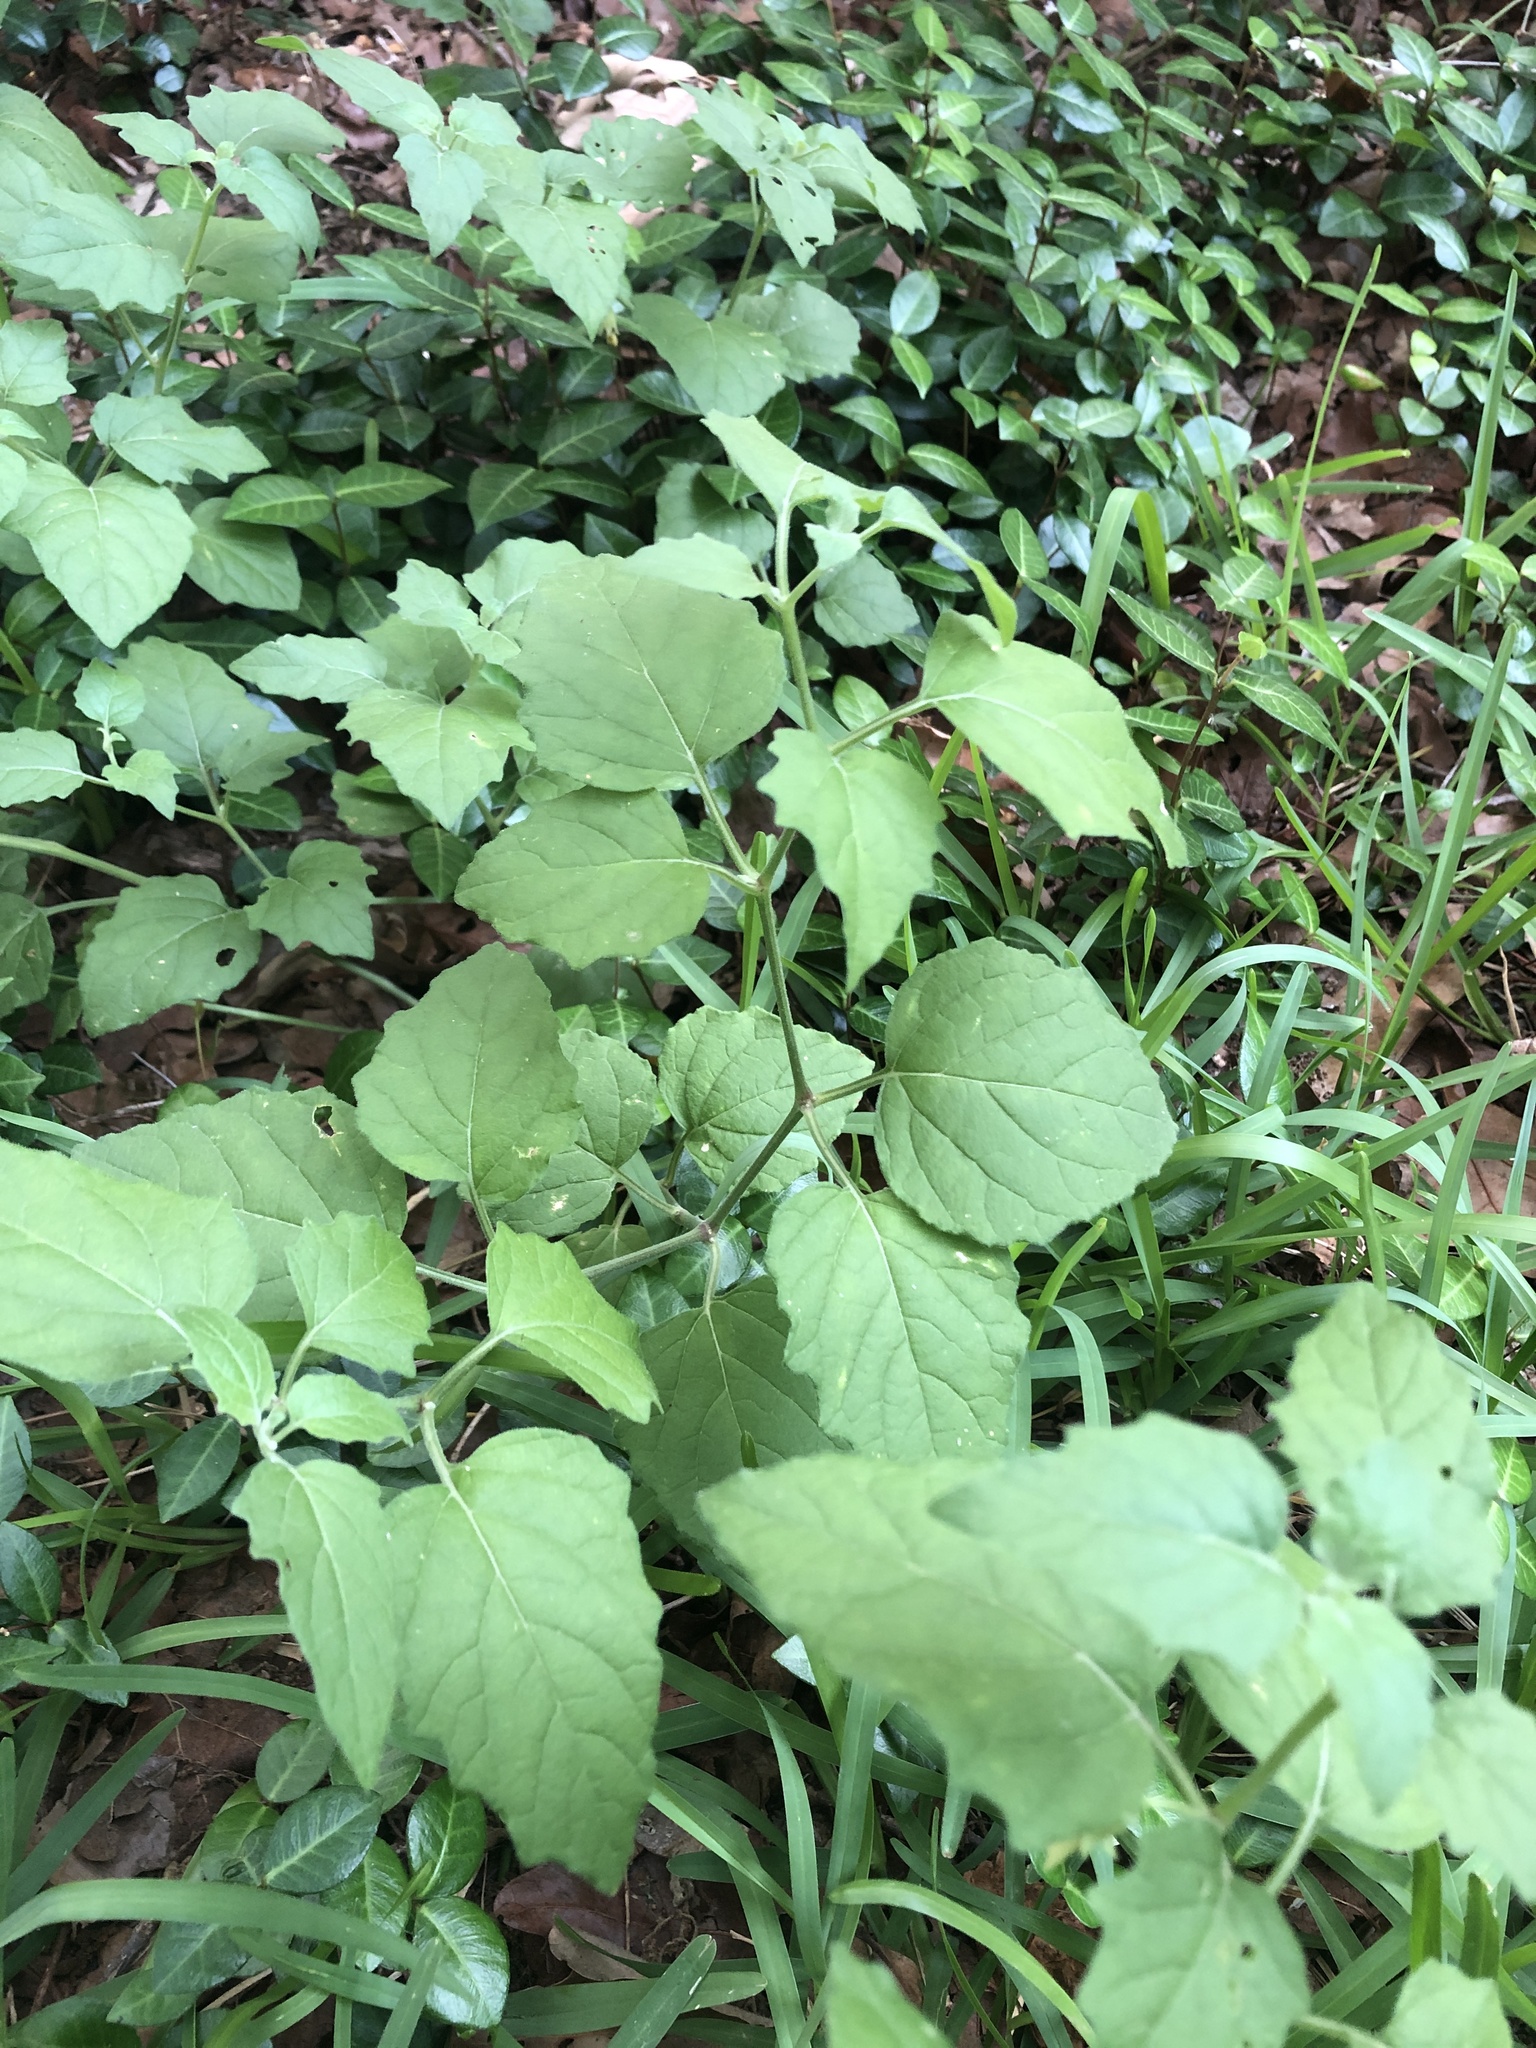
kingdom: Plantae
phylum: Tracheophyta
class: Magnoliopsida
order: Solanales
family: Solanaceae
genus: Physalis
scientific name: Physalis cinerascens
